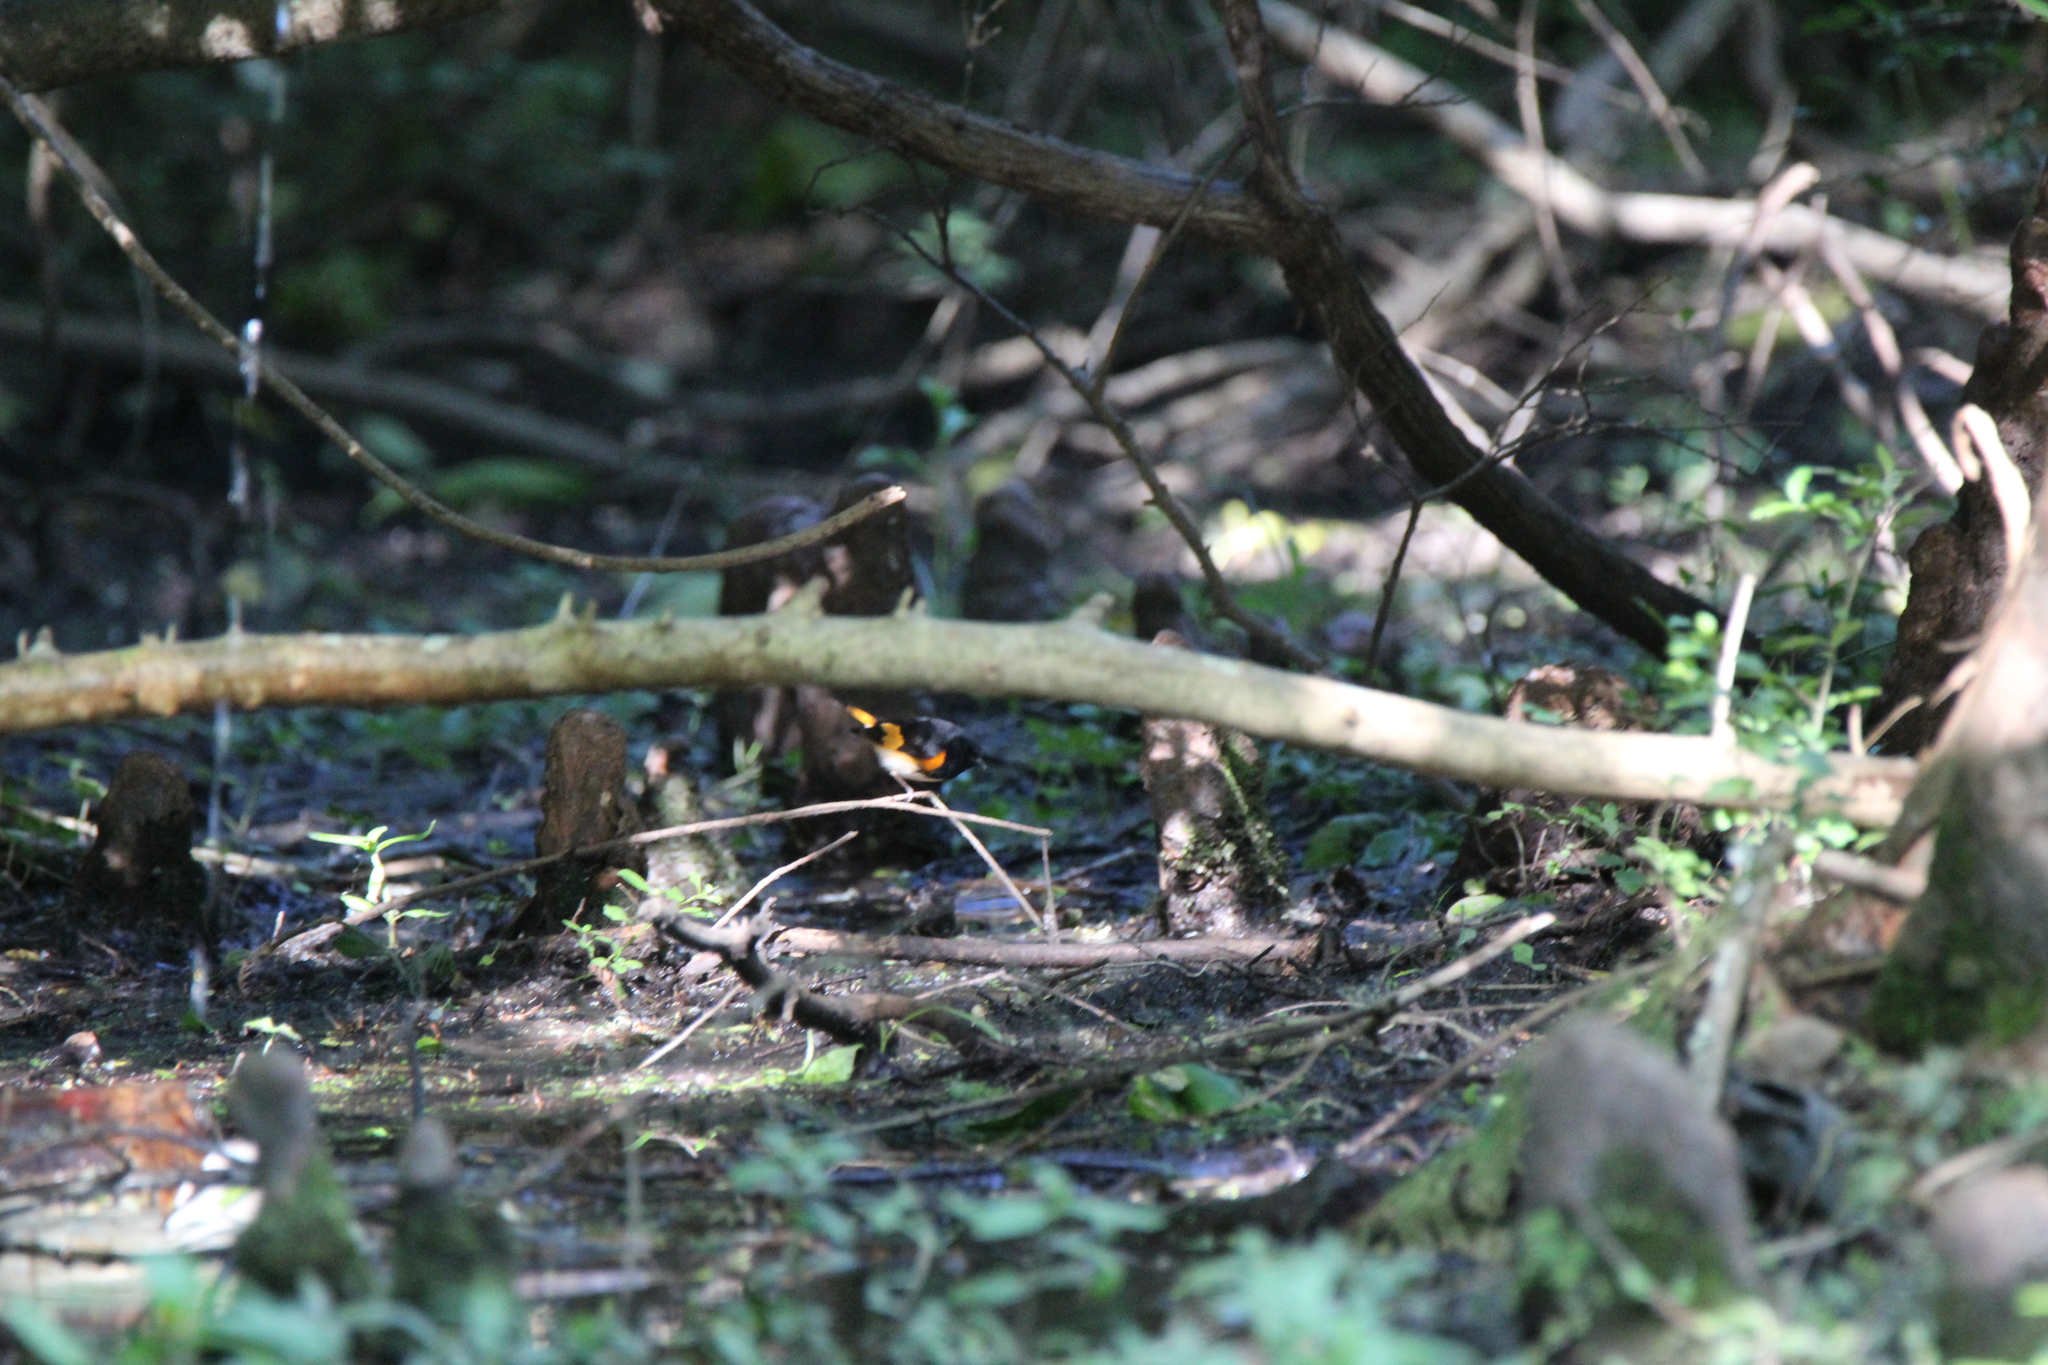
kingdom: Animalia
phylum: Chordata
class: Aves
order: Passeriformes
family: Parulidae
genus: Setophaga
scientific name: Setophaga ruticilla
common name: American redstart
